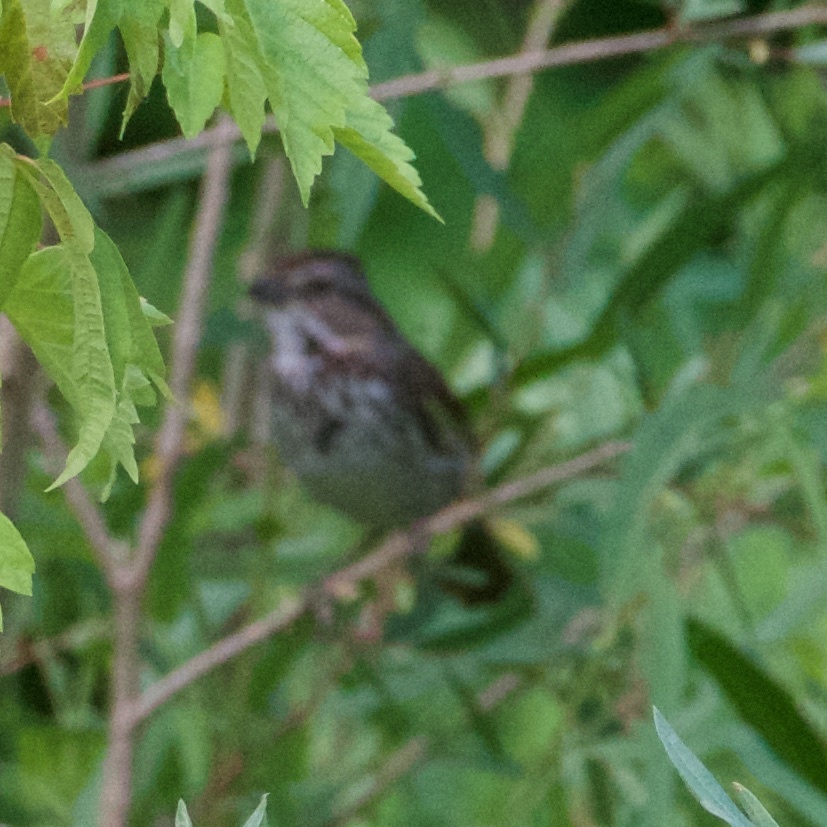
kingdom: Animalia
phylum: Chordata
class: Aves
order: Passeriformes
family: Passerellidae
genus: Melospiza
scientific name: Melospiza melodia
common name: Song sparrow
